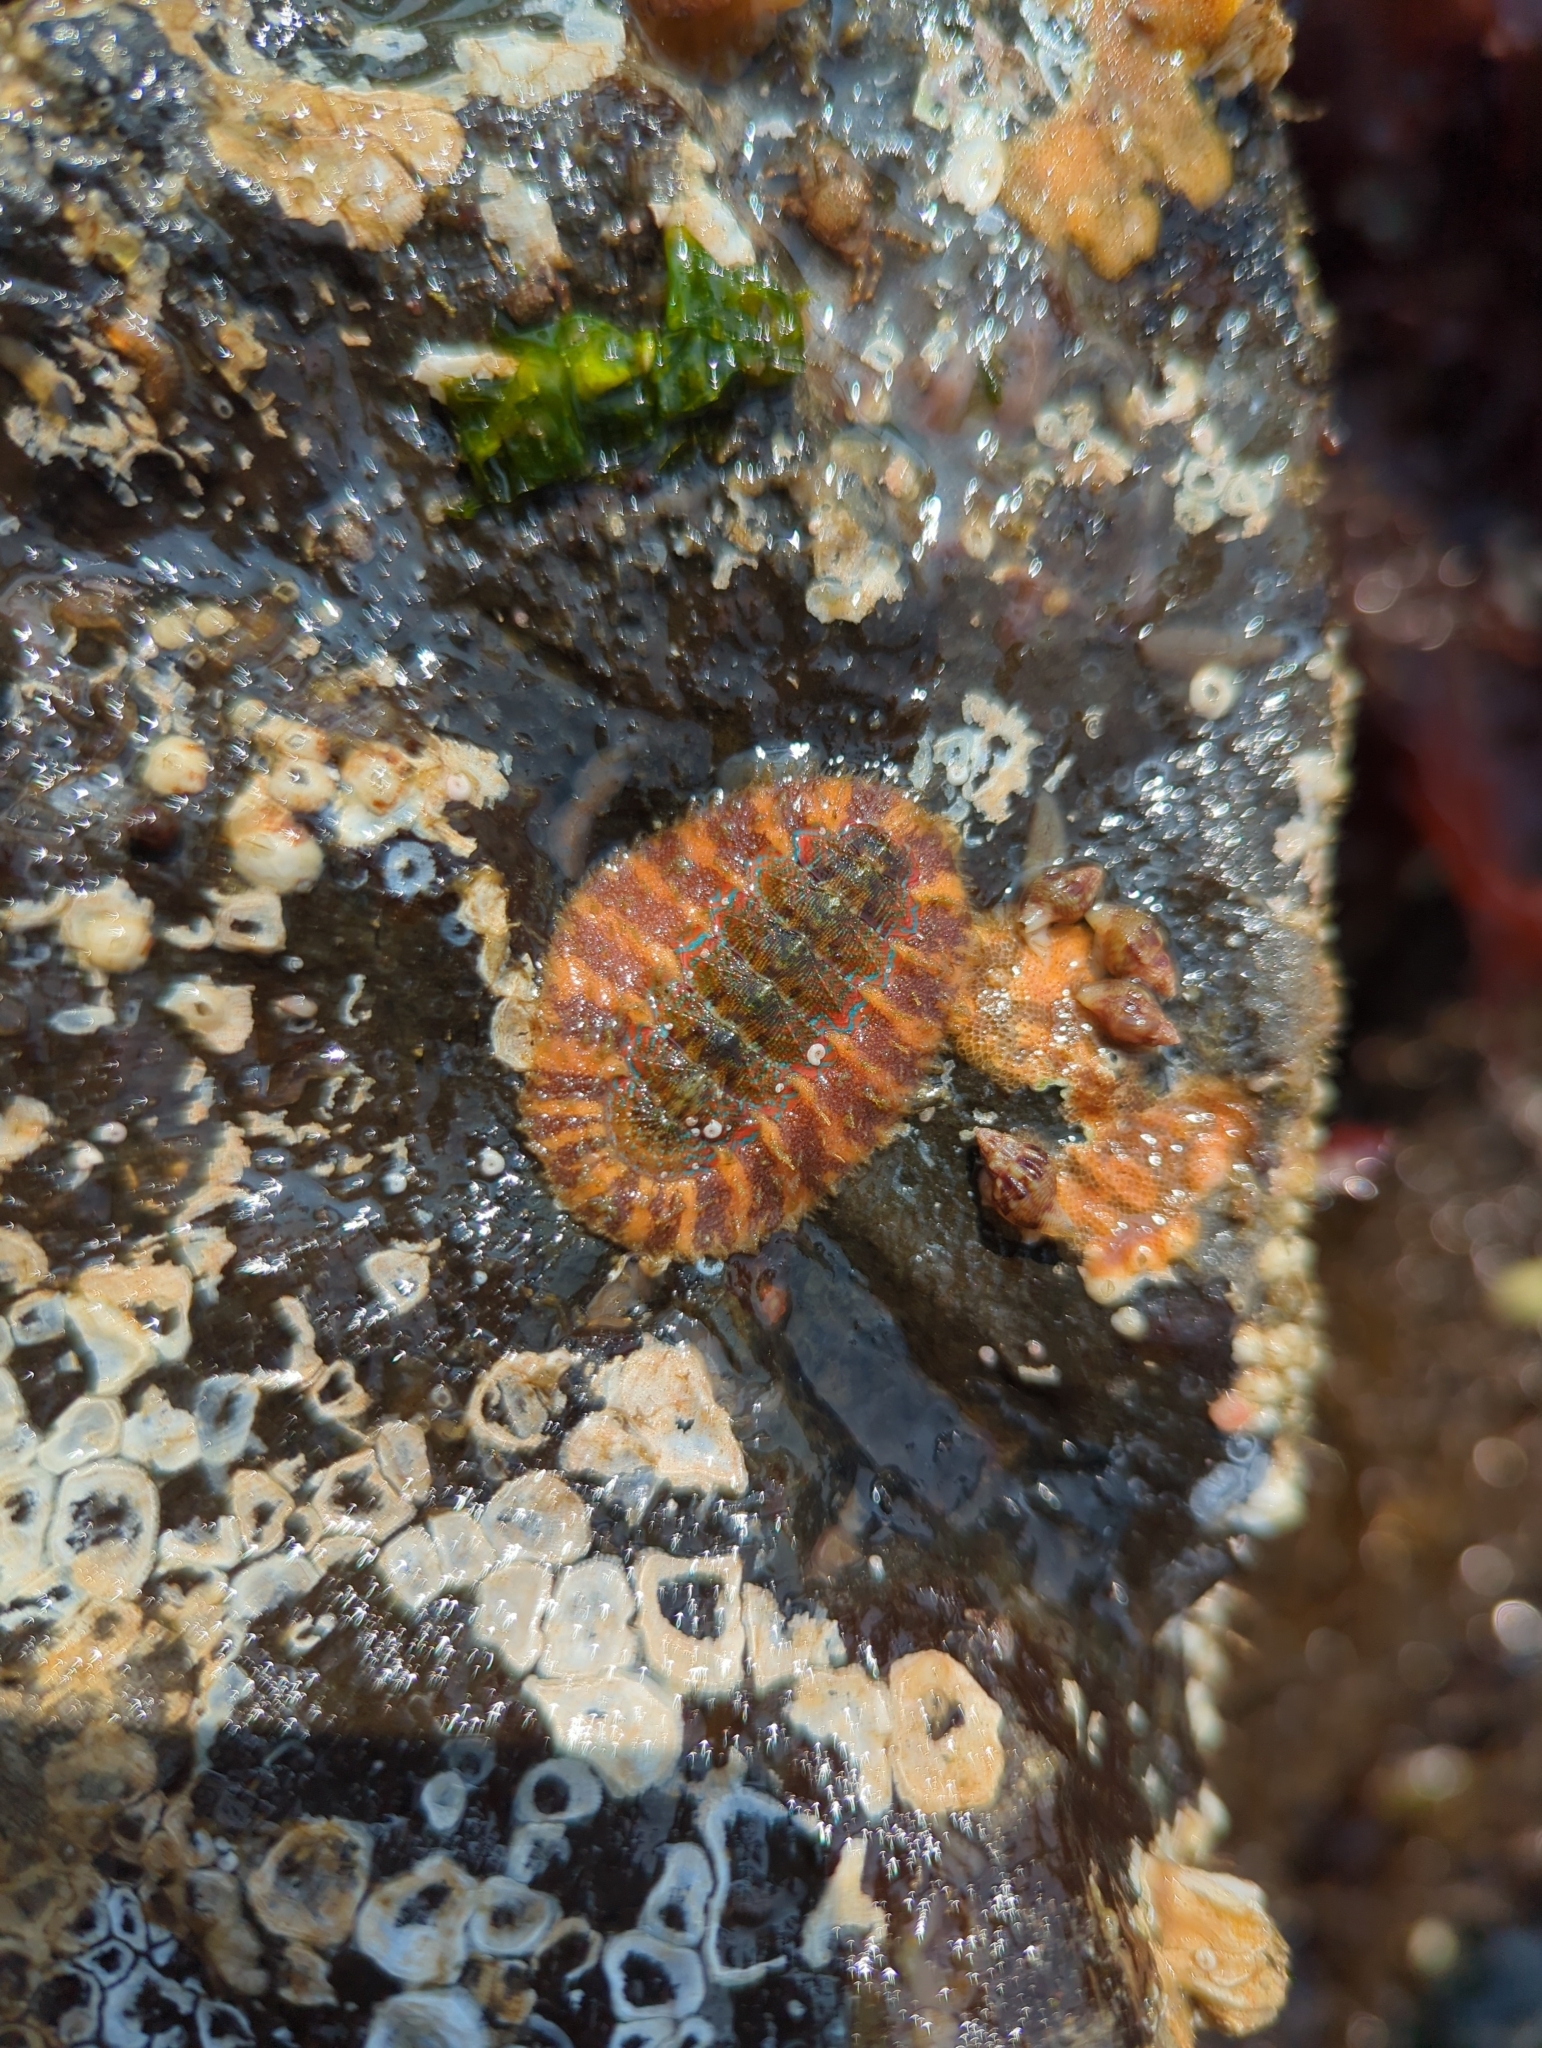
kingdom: Animalia
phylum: Mollusca
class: Polyplacophora
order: Chitonida
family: Mopaliidae
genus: Mopalia
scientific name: Mopalia spectabilis
